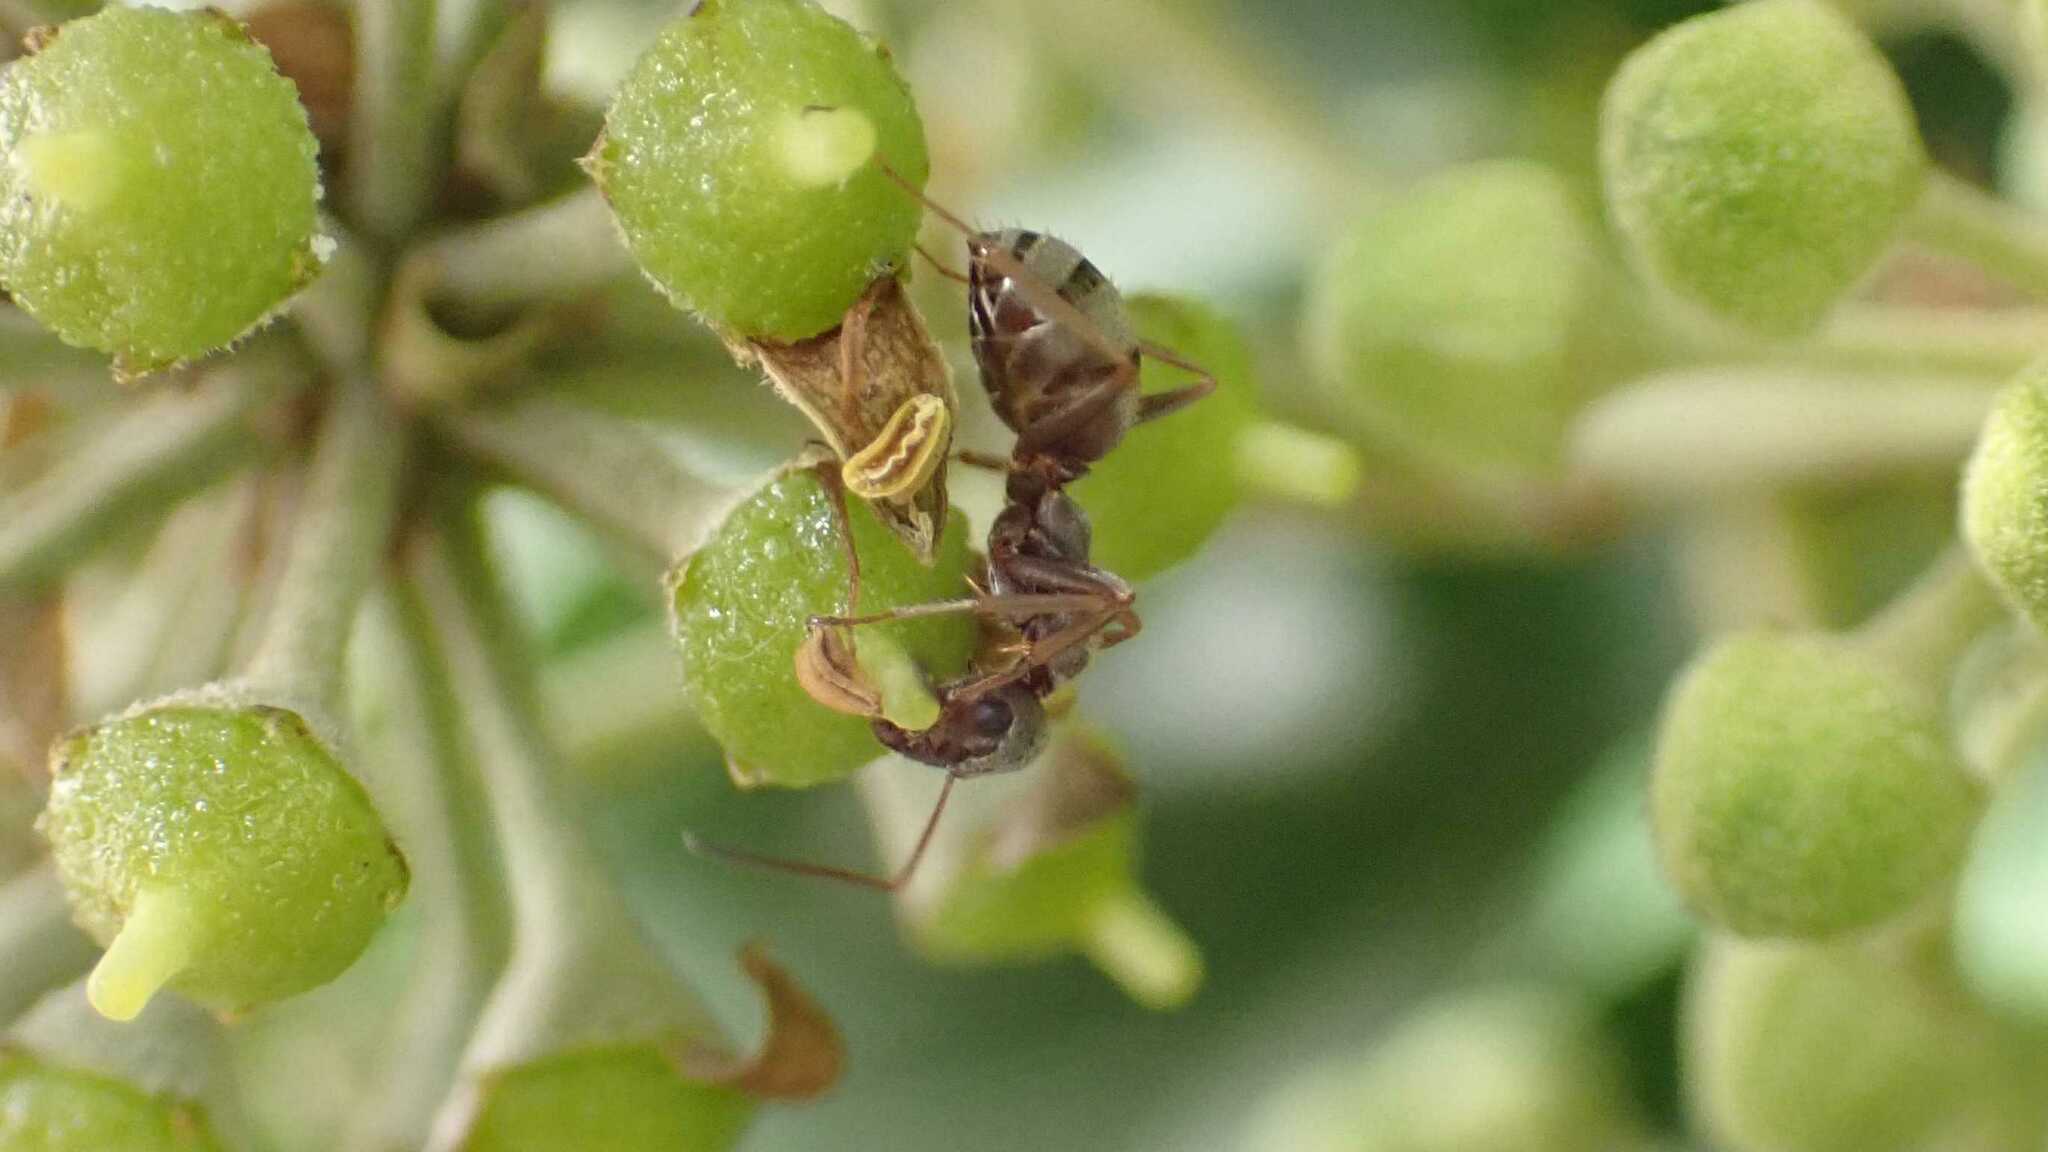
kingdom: Animalia
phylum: Arthropoda
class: Insecta
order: Hymenoptera
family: Formicidae
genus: Formica
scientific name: Formica cinerea
